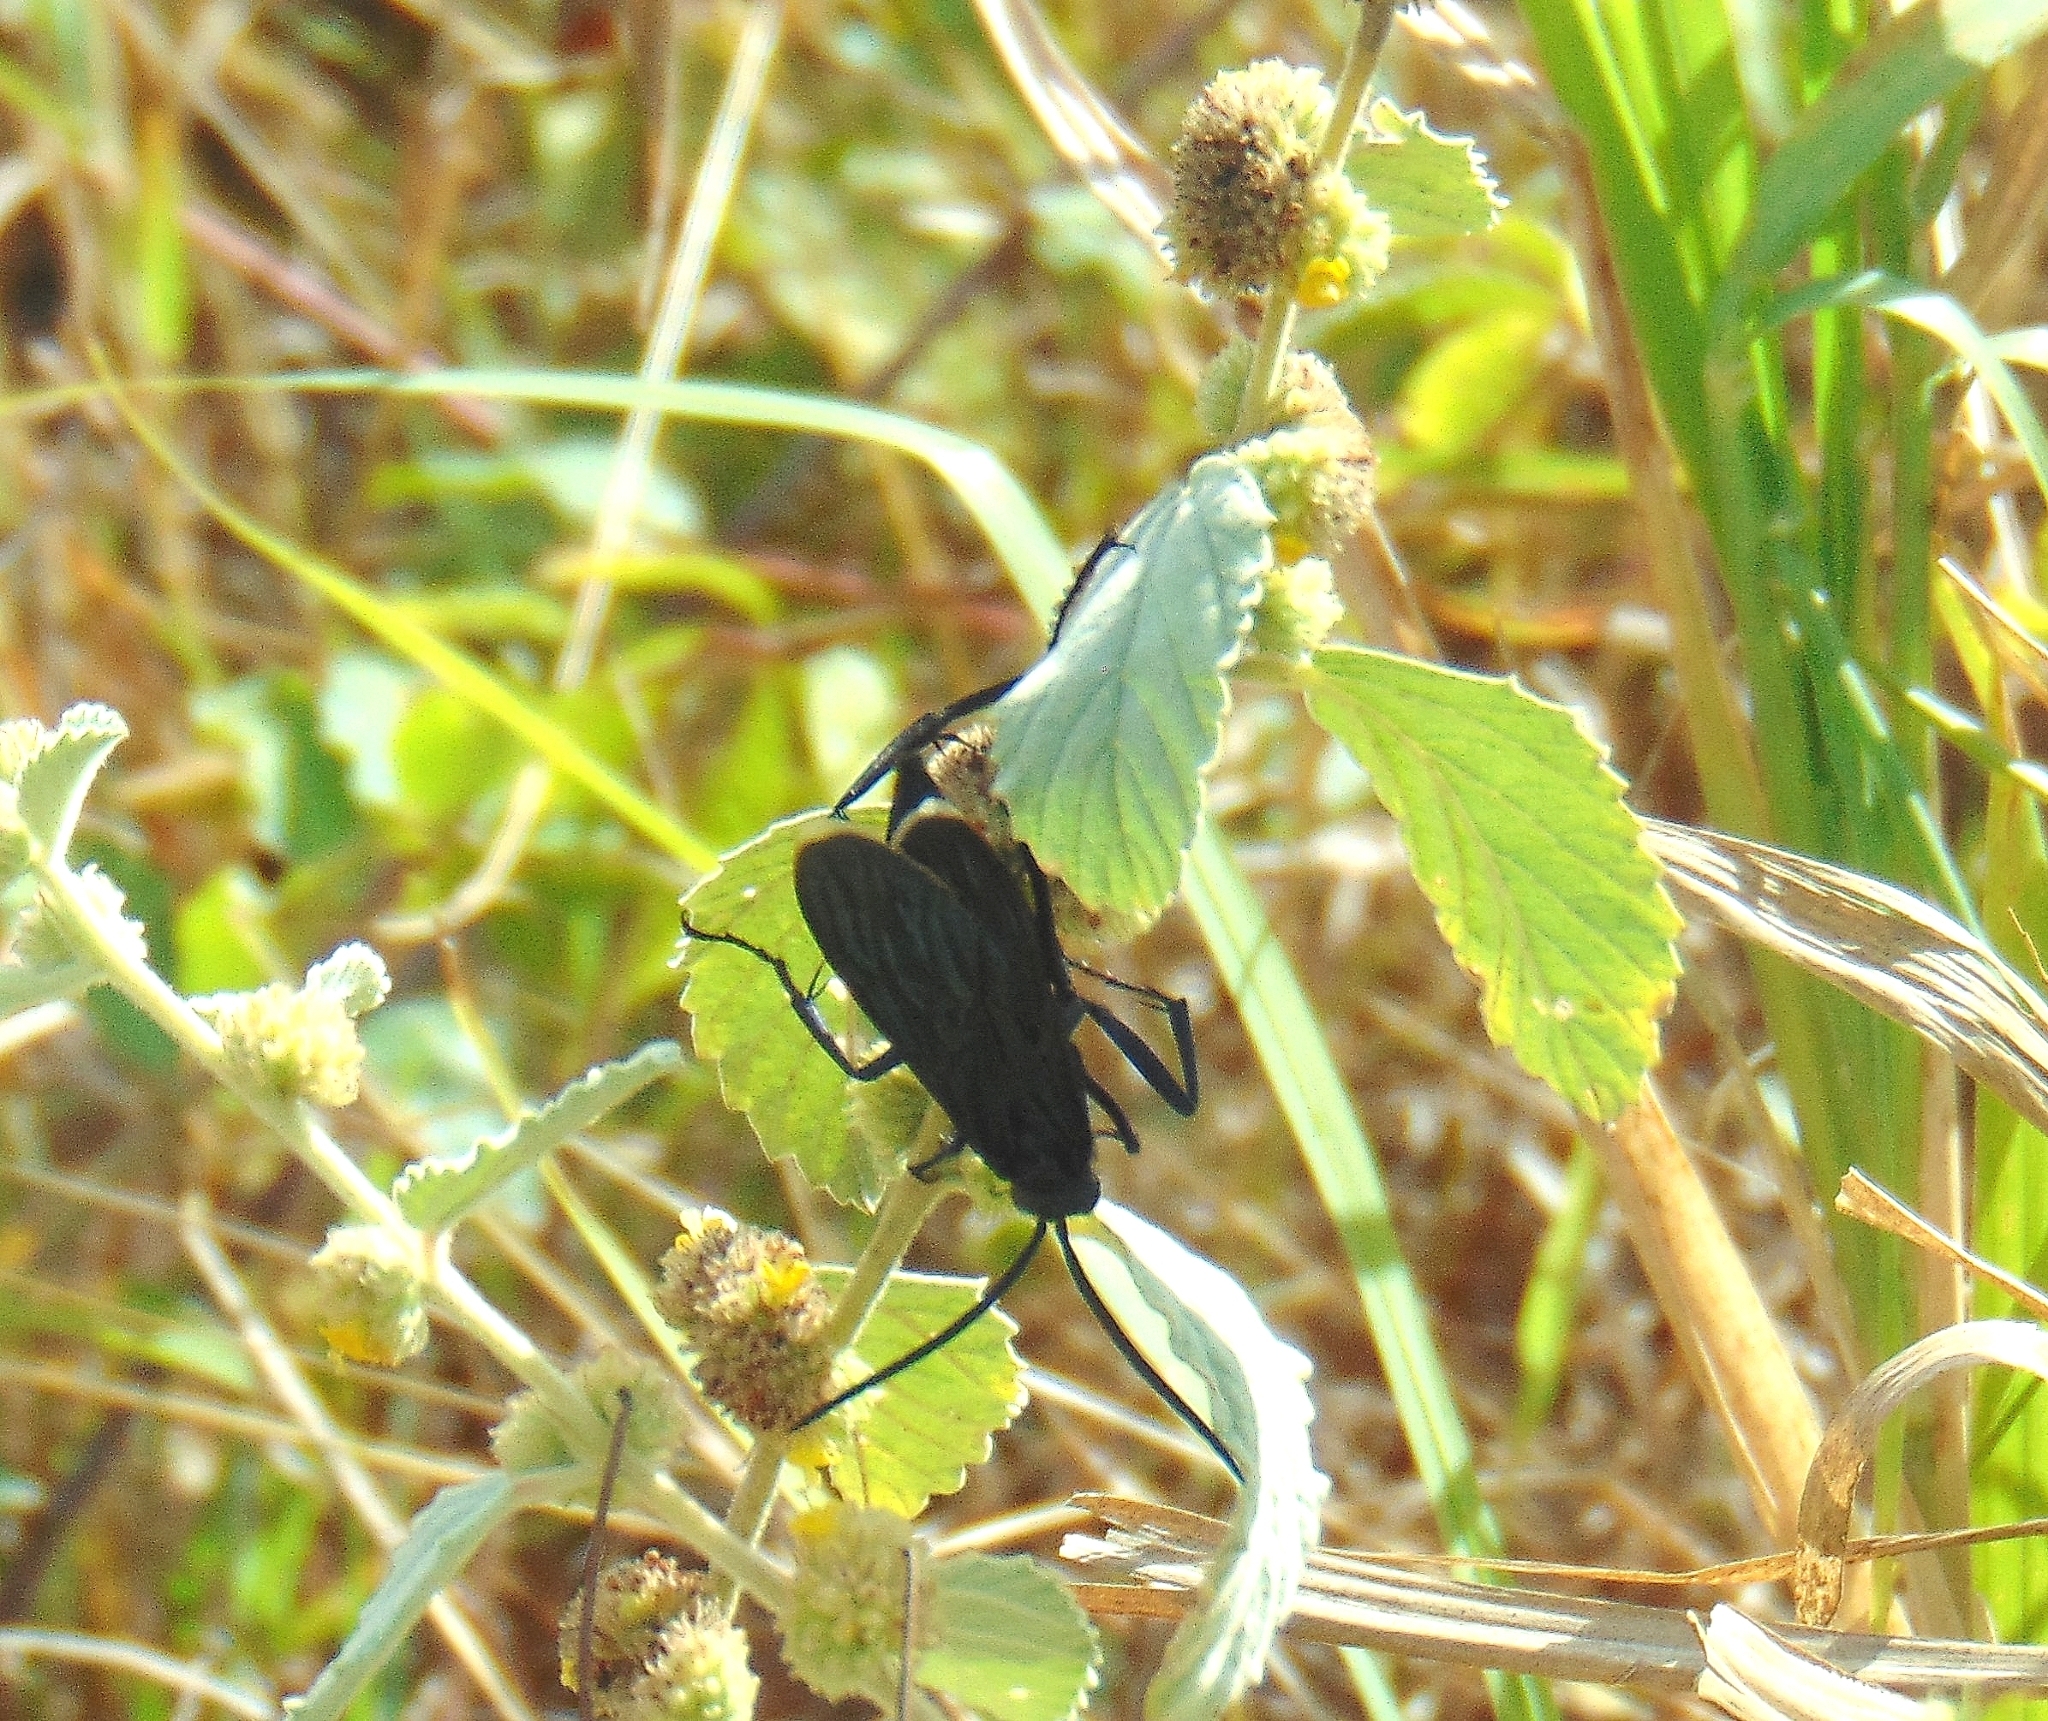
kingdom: Animalia
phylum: Arthropoda
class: Insecta
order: Hymenoptera
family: Pompilidae
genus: Pepsis
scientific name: Pepsis mexicana
